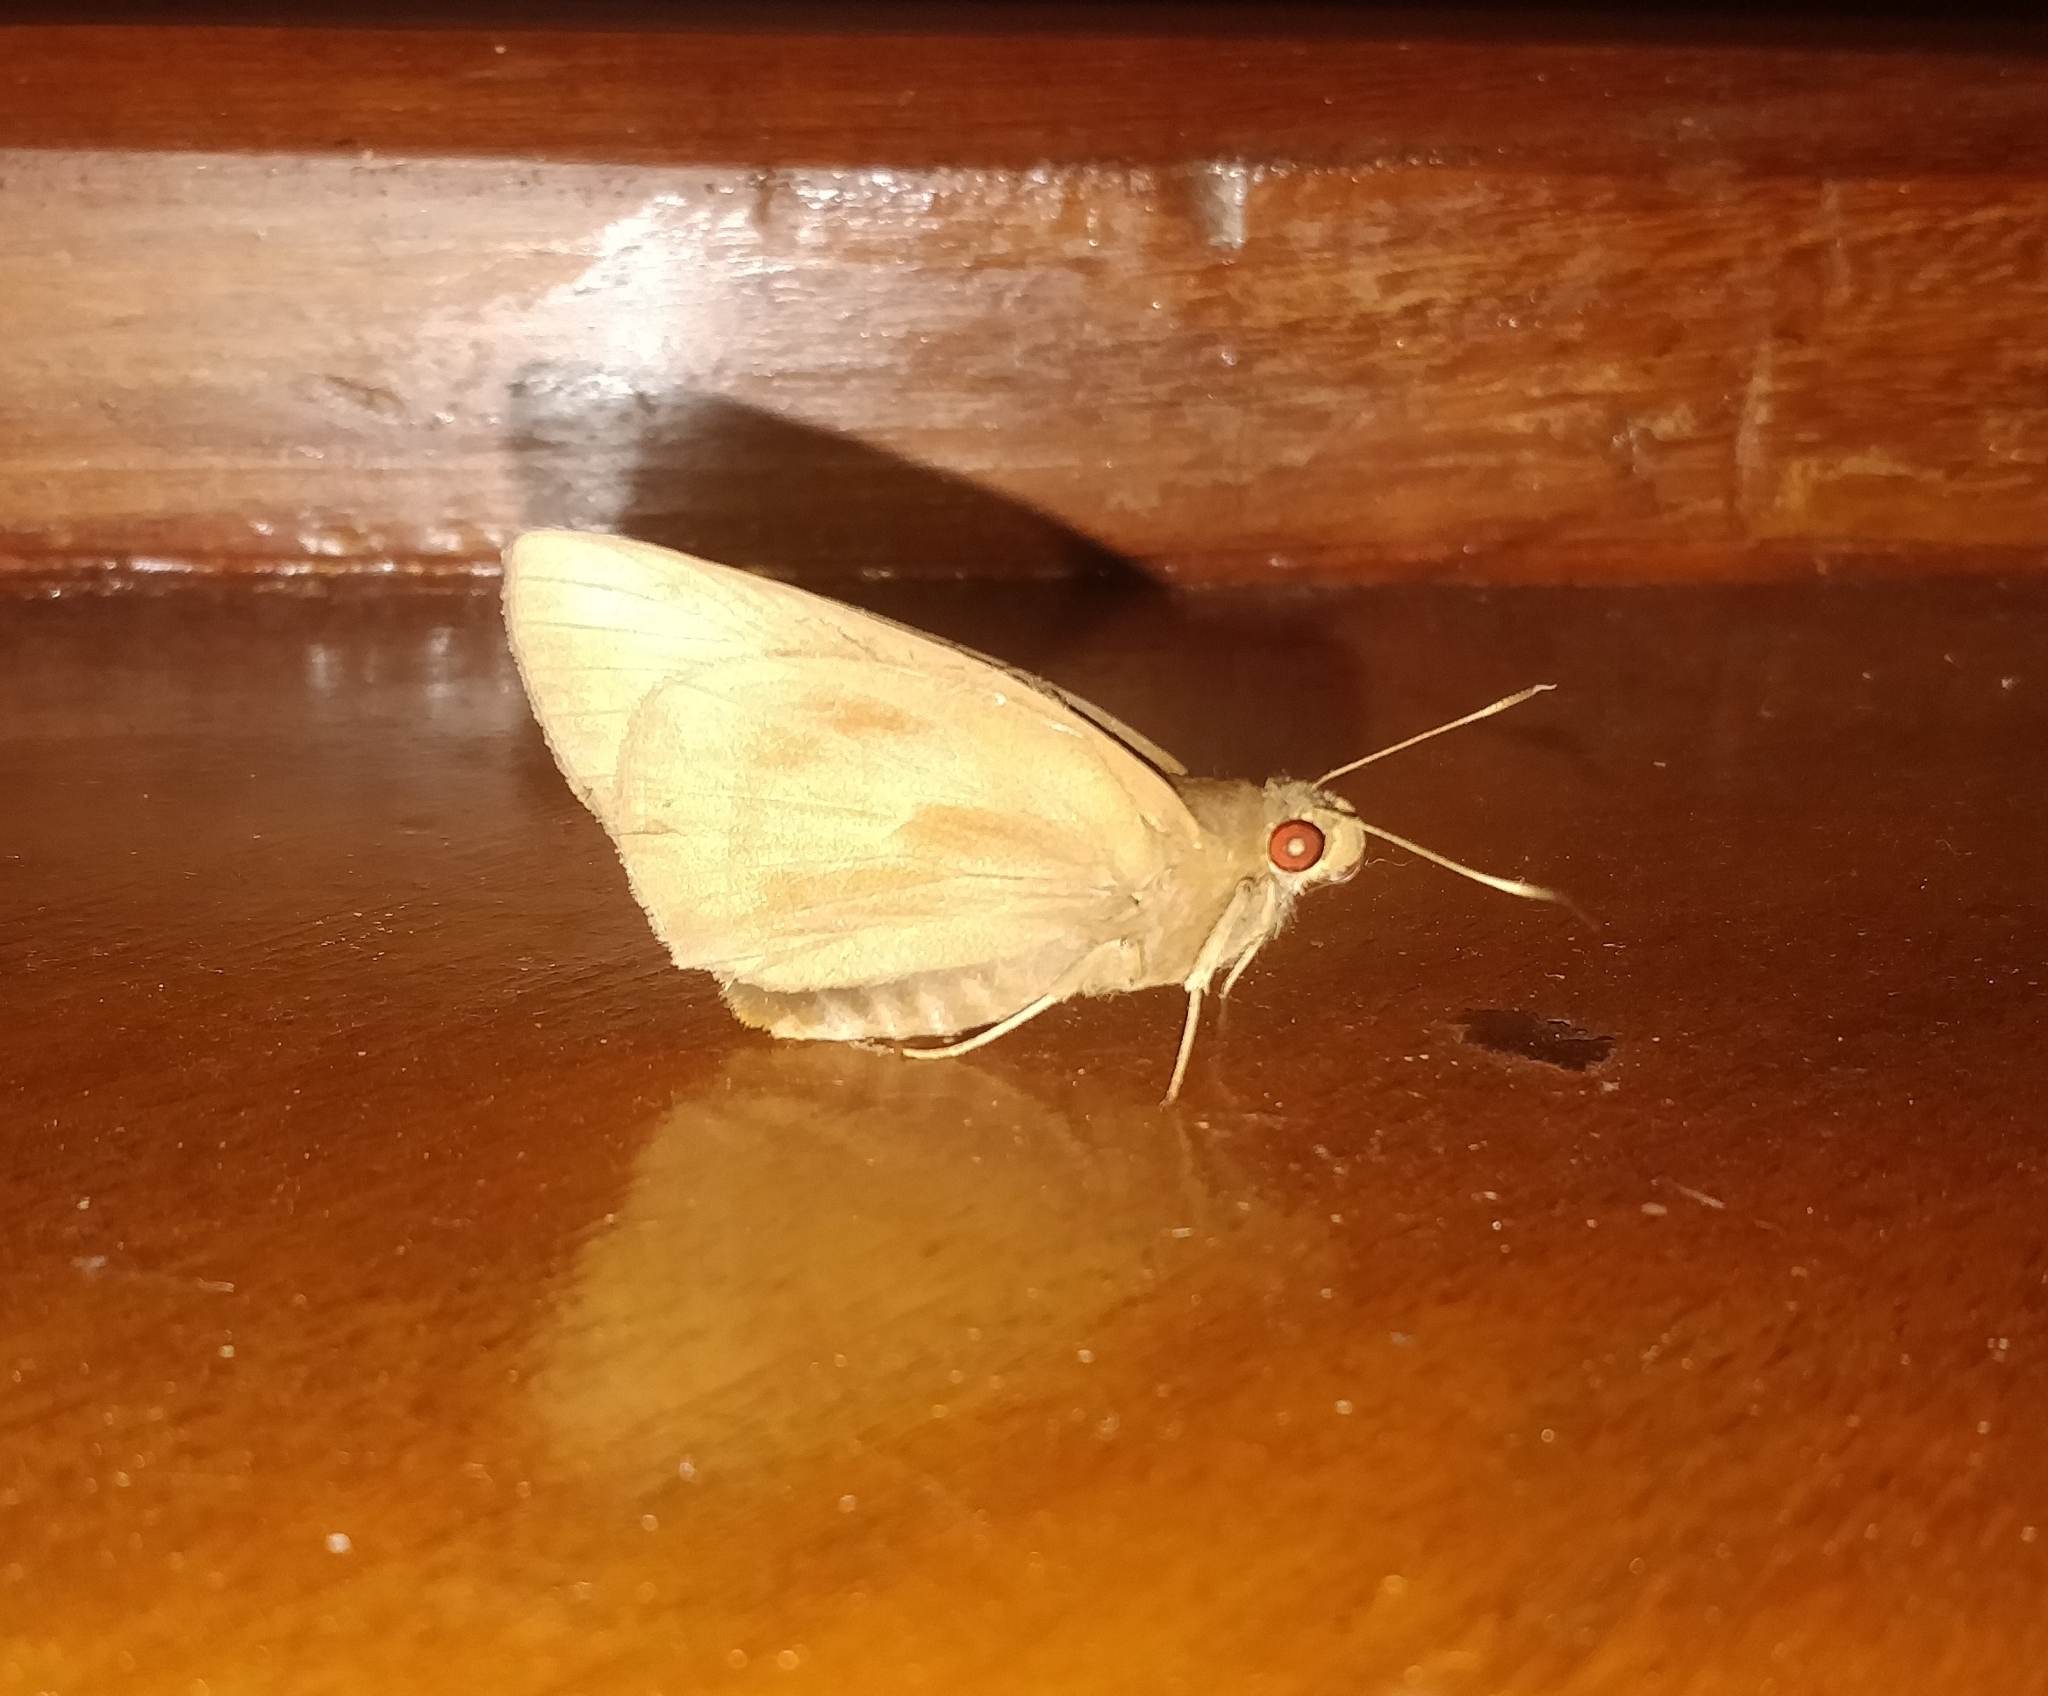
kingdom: Animalia
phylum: Arthropoda
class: Insecta
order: Lepidoptera
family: Hesperiidae
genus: Erionota
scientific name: Erionota torus
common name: Rounded palm-redeye
